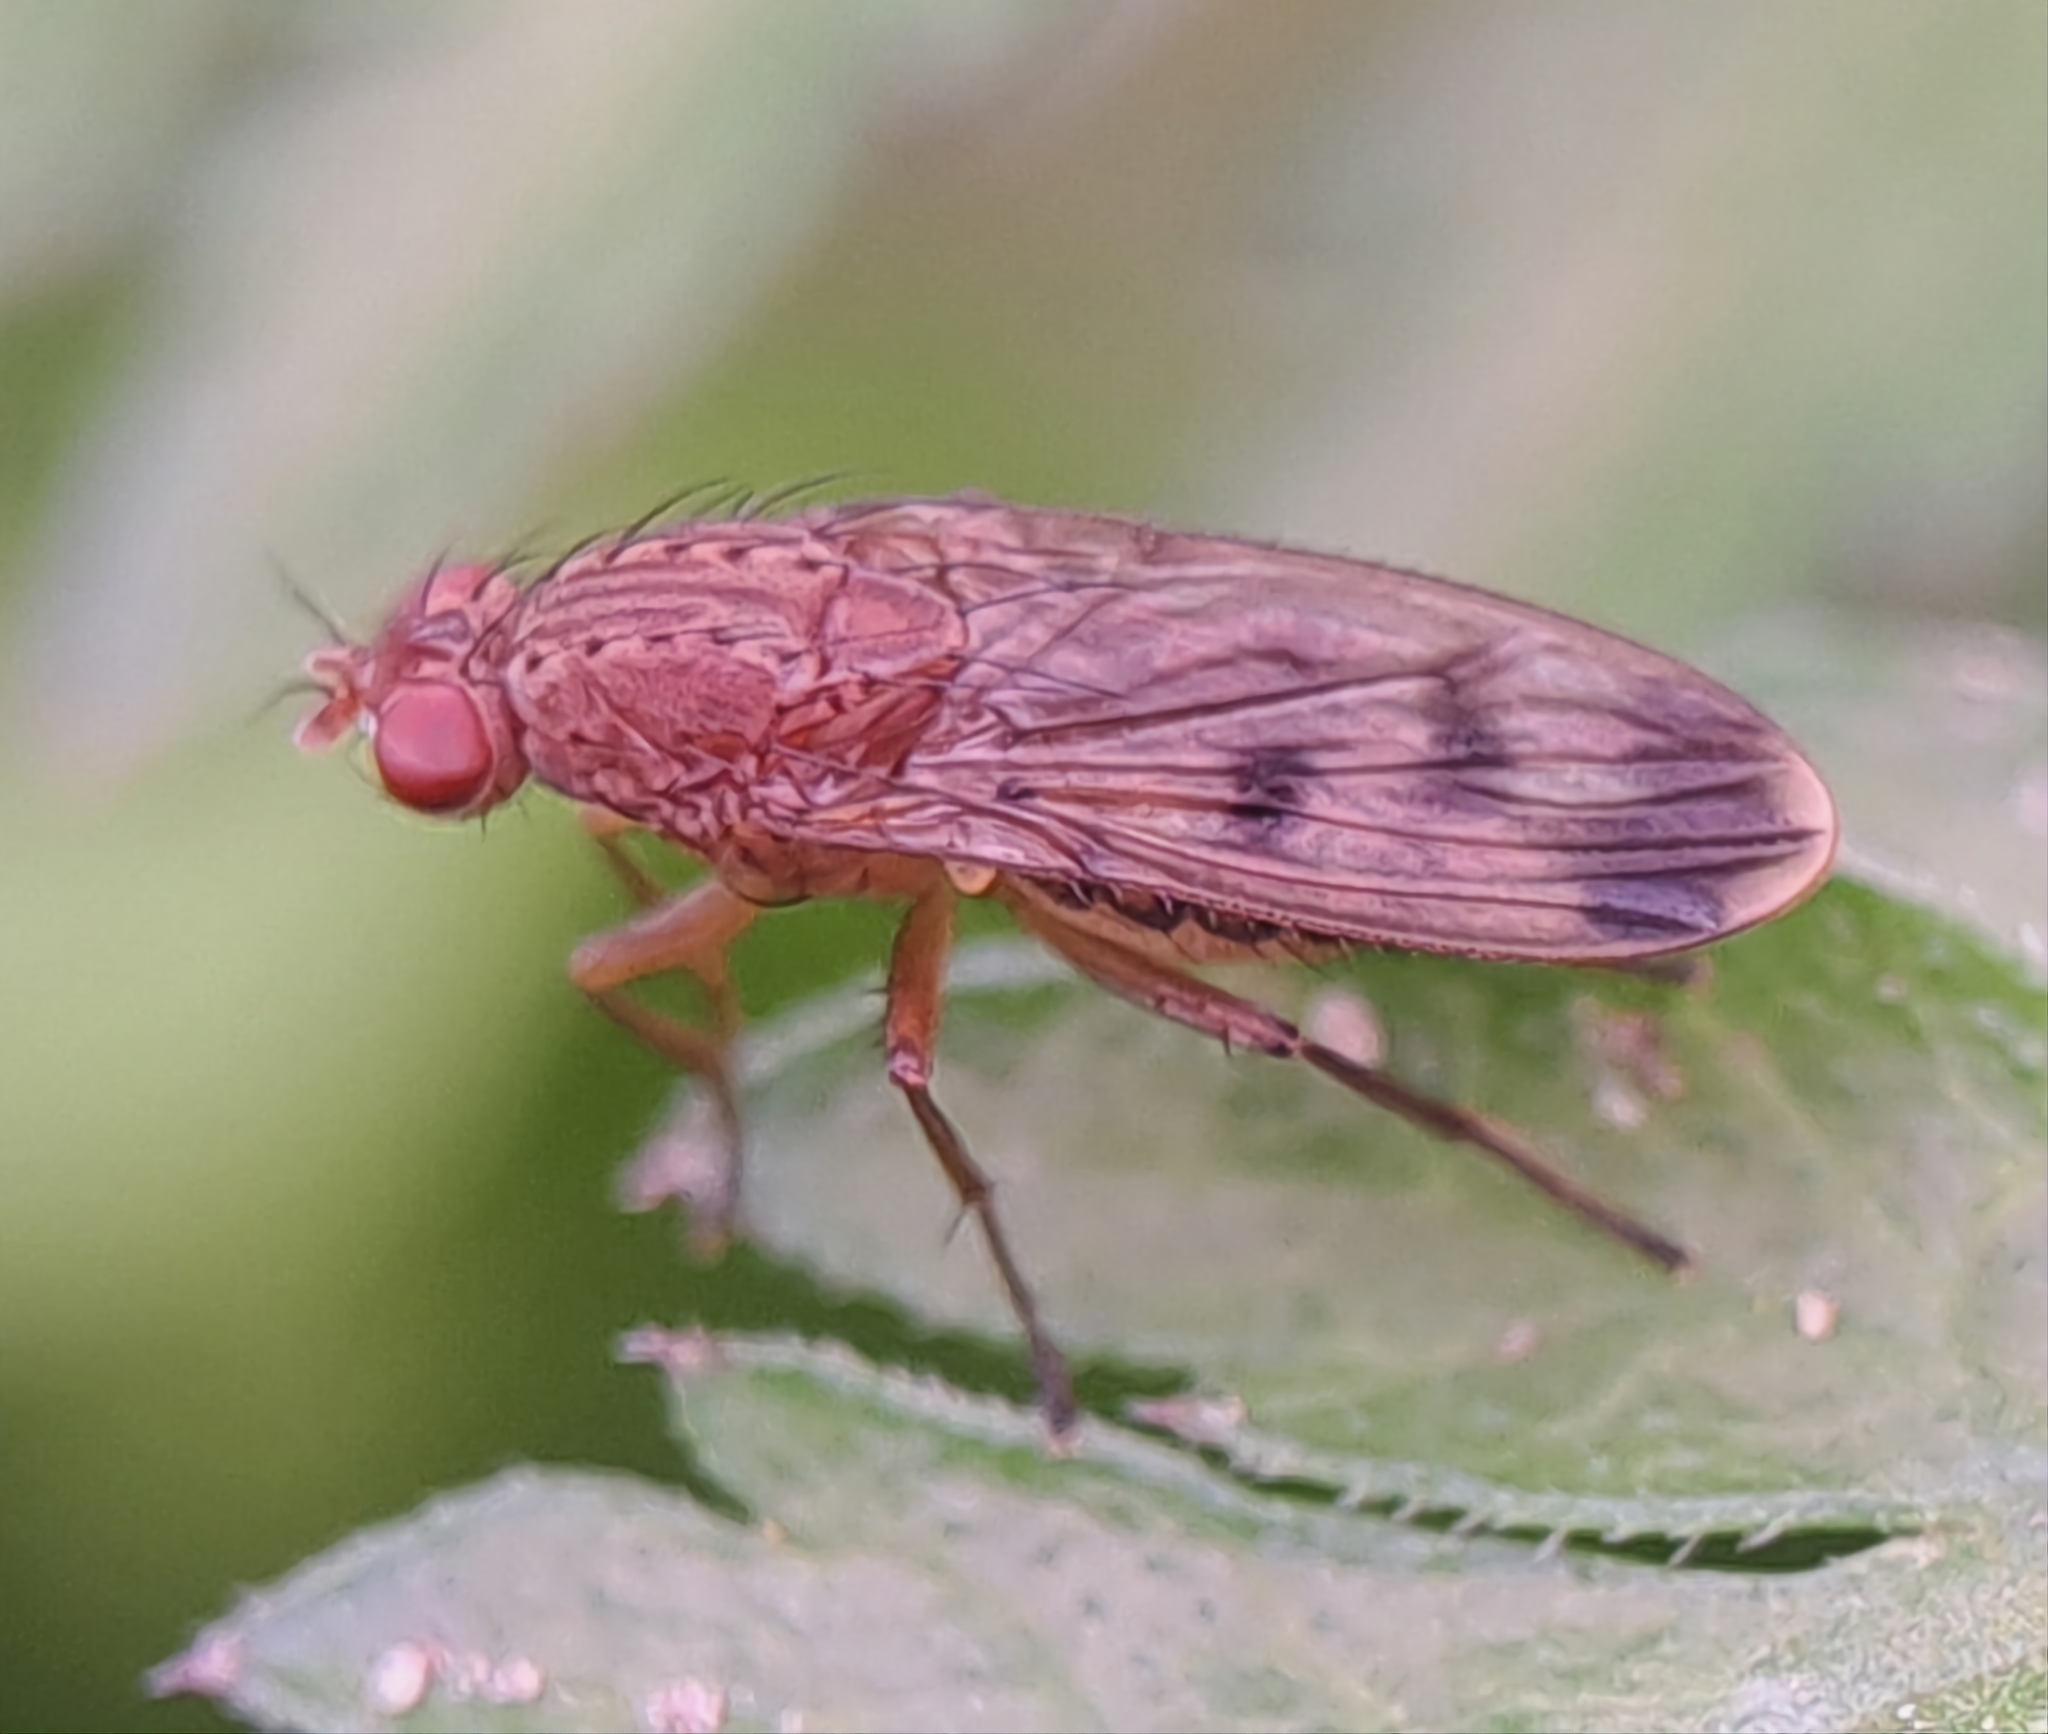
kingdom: Animalia
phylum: Arthropoda
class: Insecta
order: Diptera
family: Heleomyzidae
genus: Suillia
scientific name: Suillia variegata
